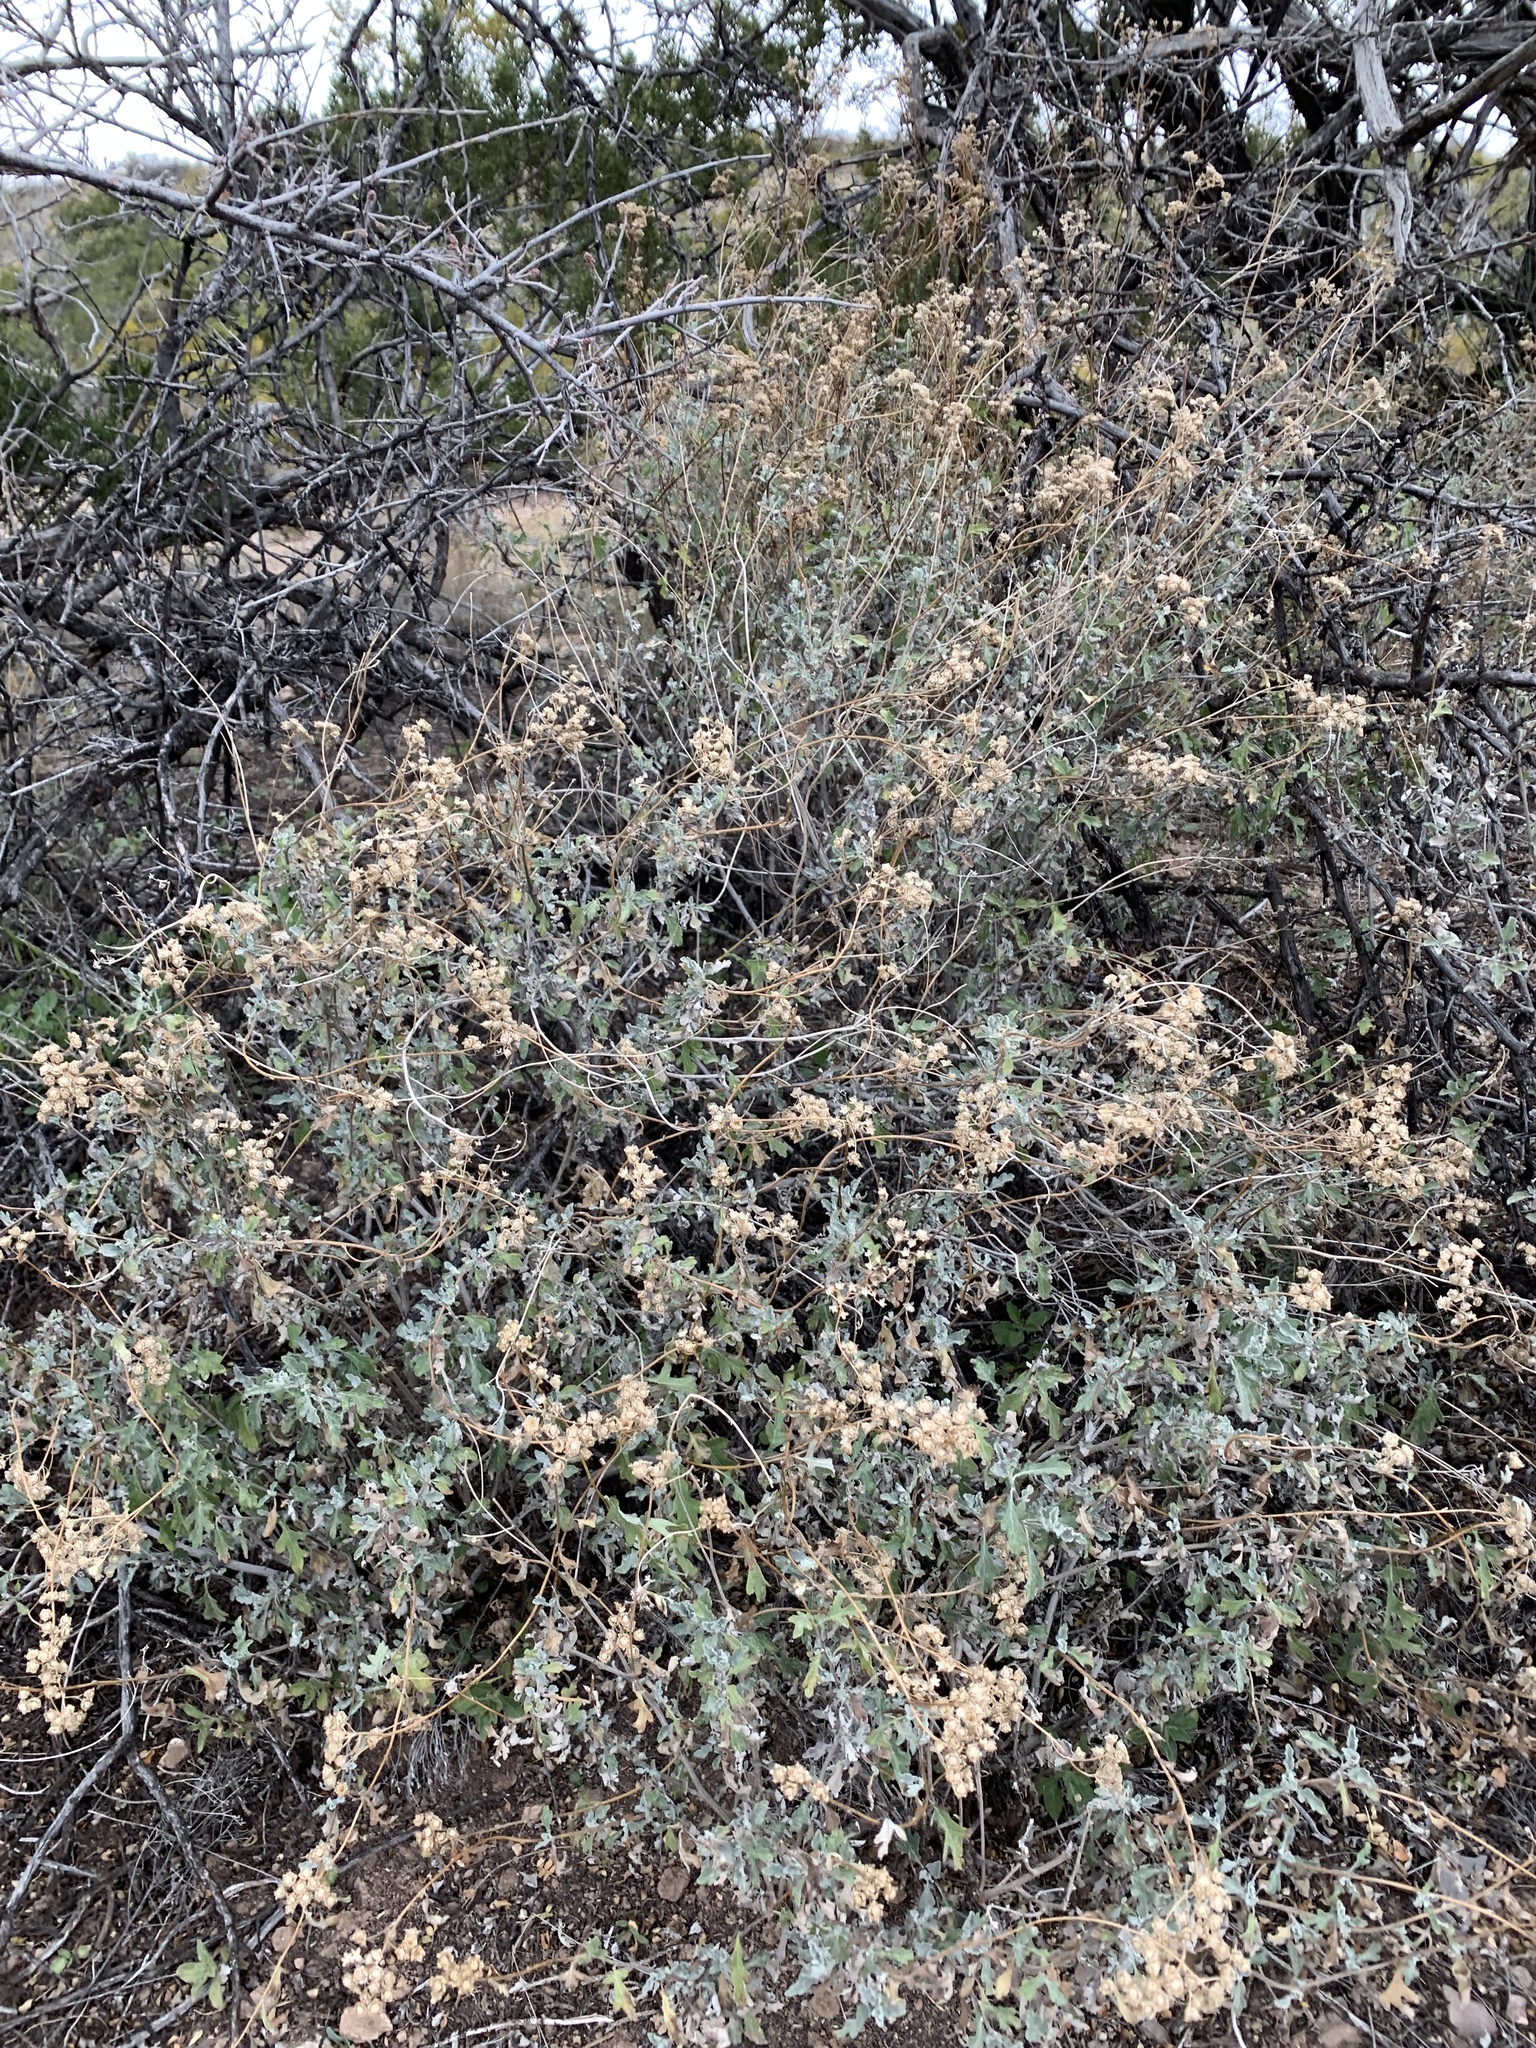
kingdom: Plantae
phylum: Tracheophyta
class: Magnoliopsida
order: Asterales
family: Asteraceae
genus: Parthenium
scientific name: Parthenium incanum
